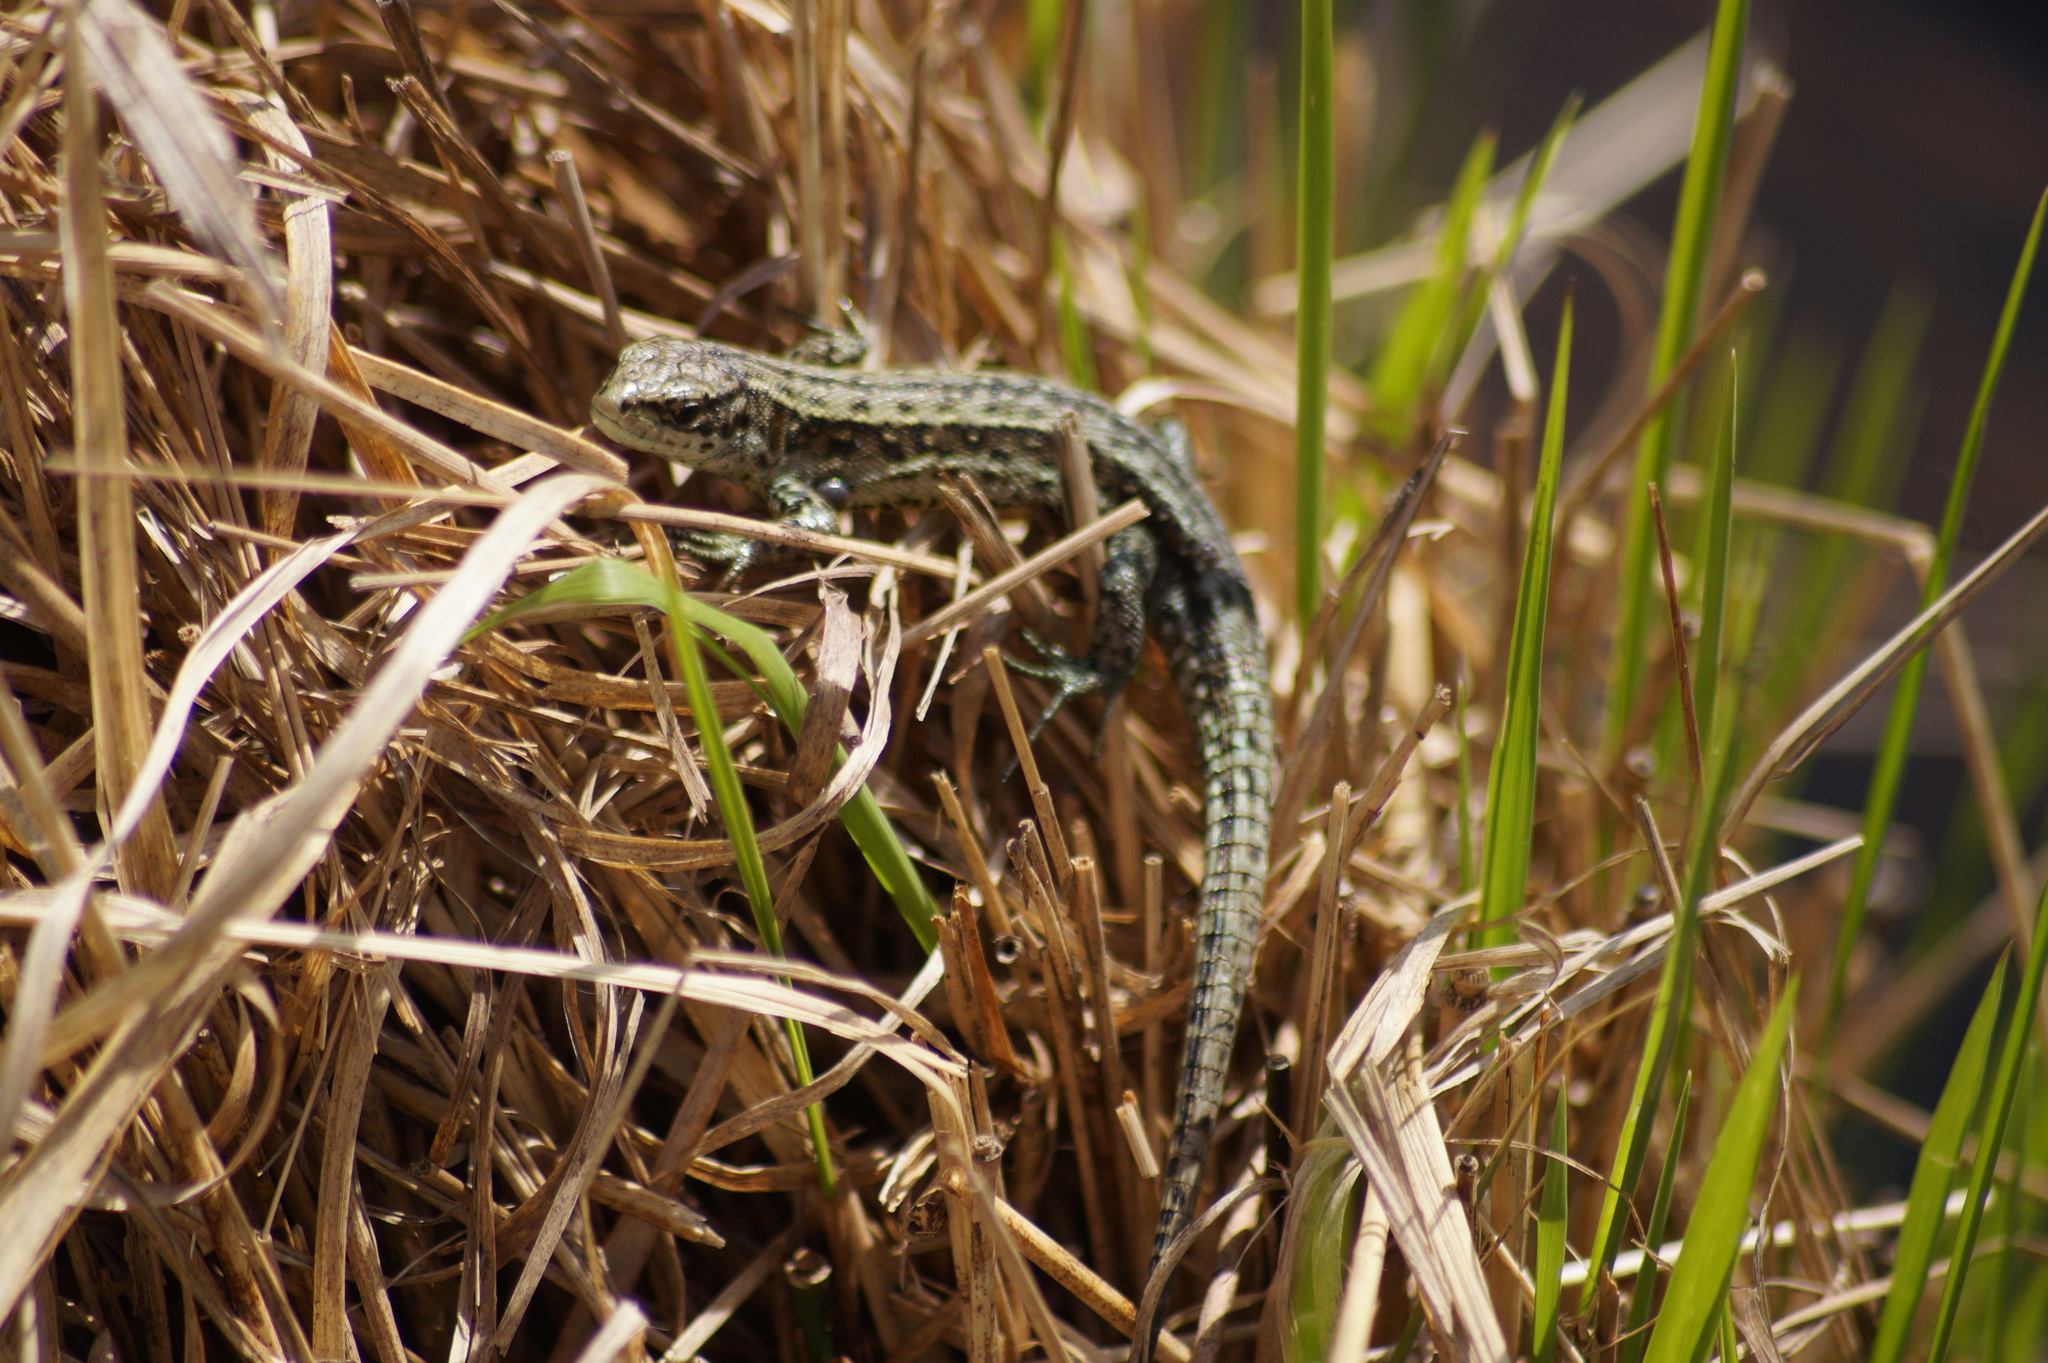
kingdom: Animalia
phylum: Chordata
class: Squamata
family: Lacertidae
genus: Zootoca
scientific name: Zootoca vivipara
